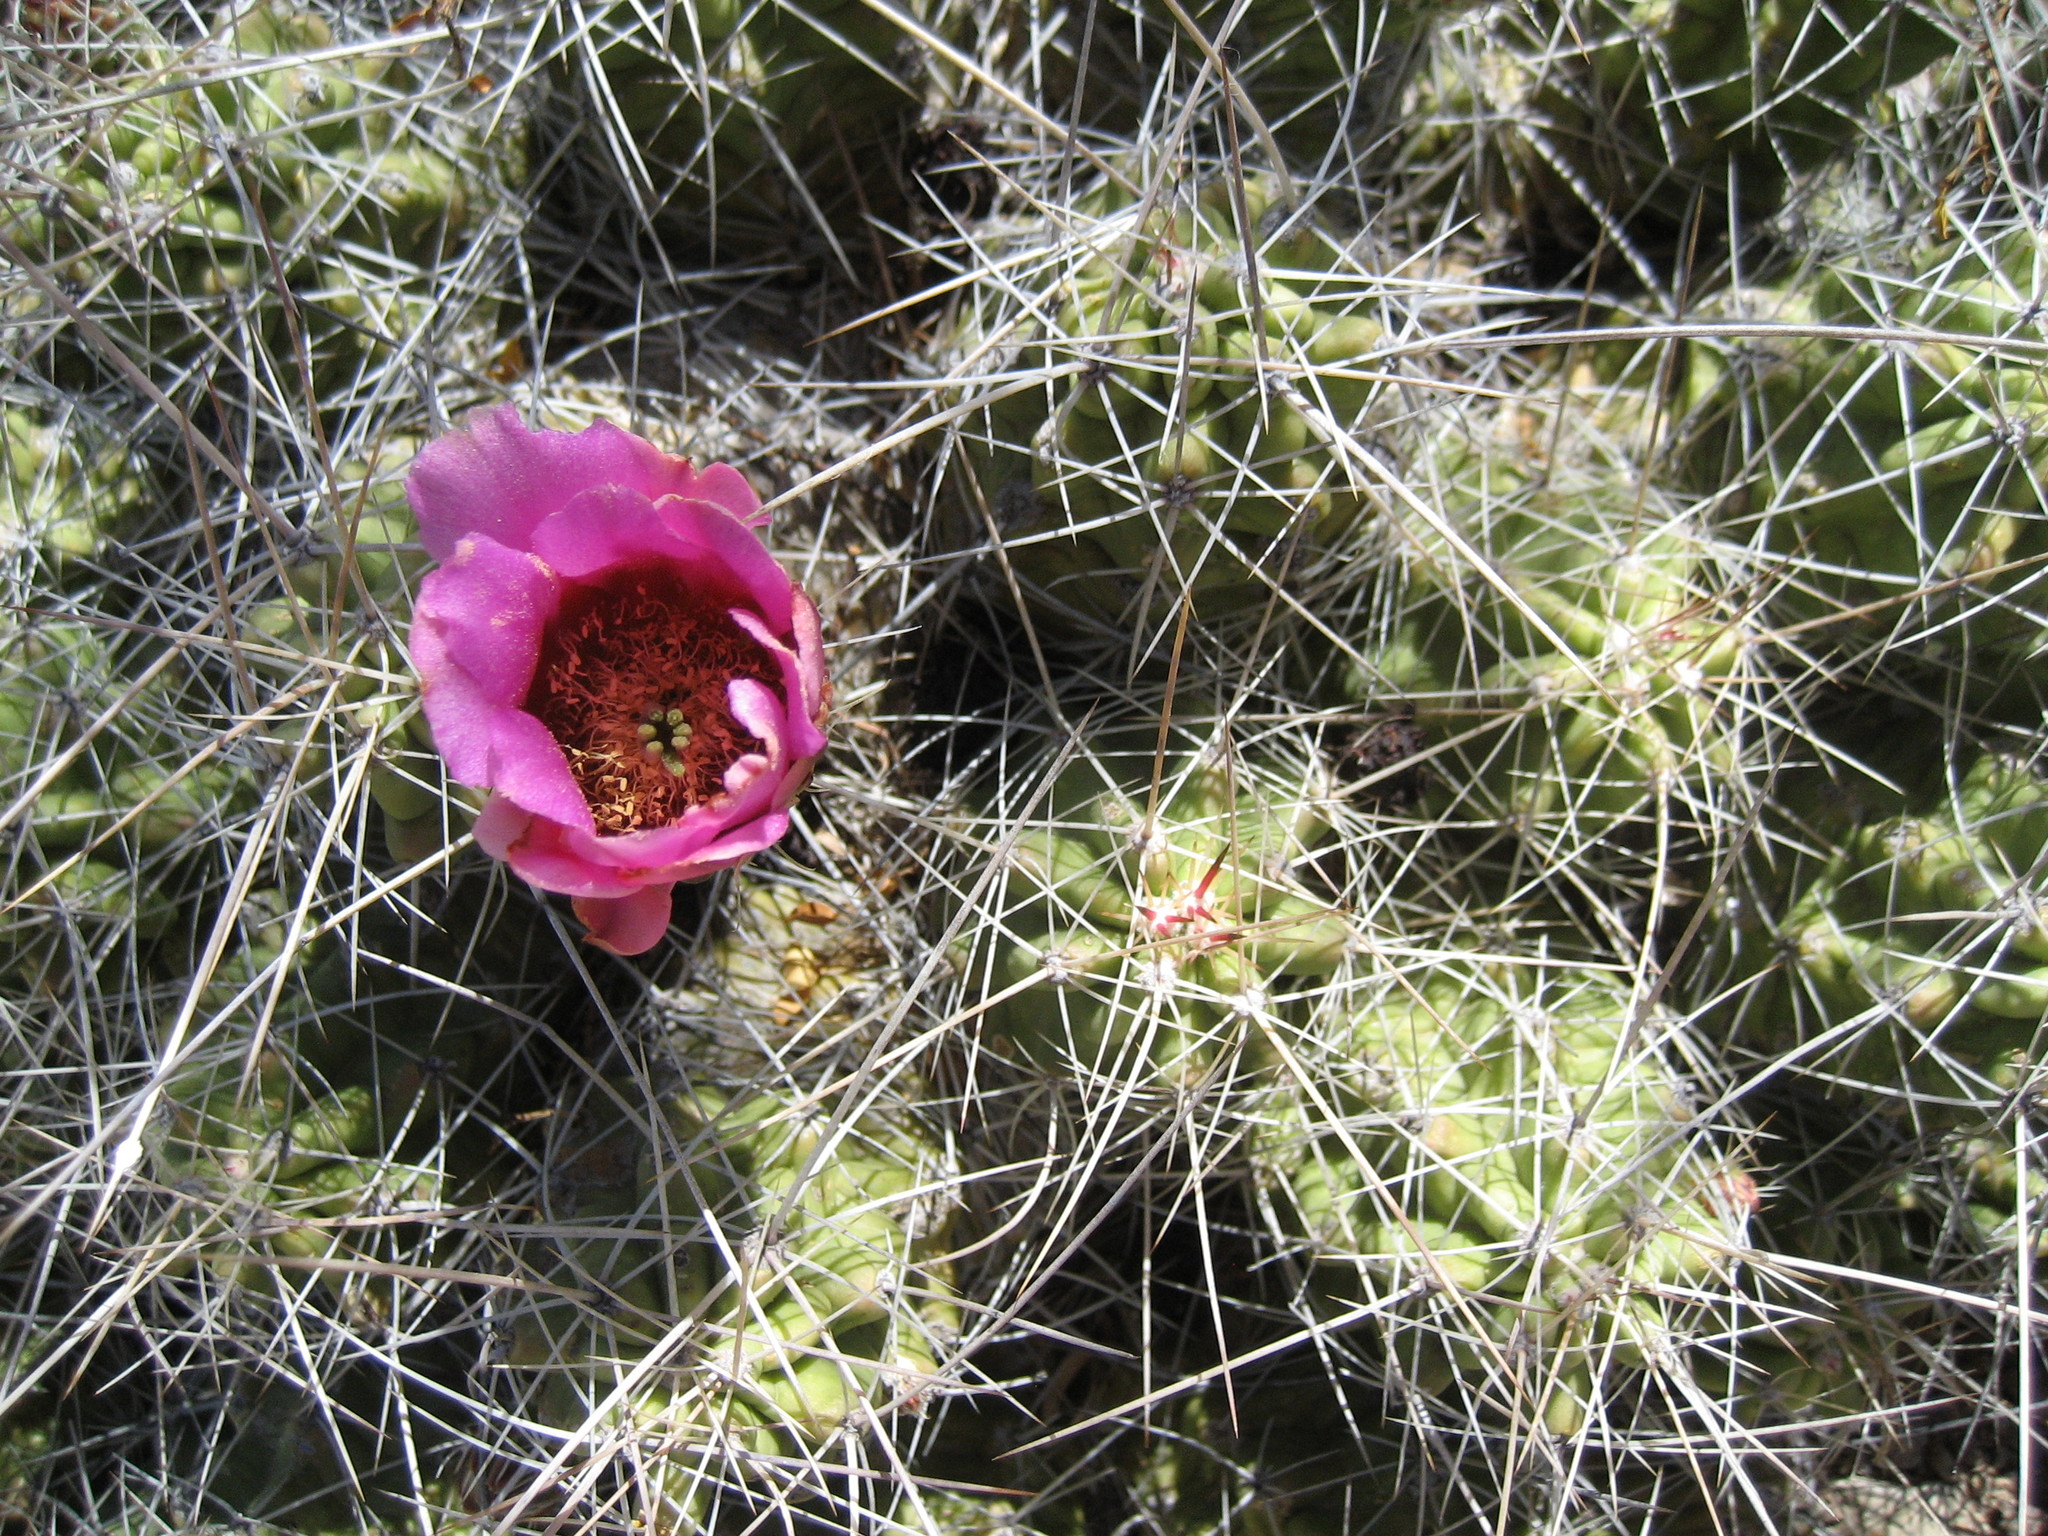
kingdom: Plantae
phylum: Tracheophyta
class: Magnoliopsida
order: Caryophyllales
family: Cactaceae
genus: Echinocereus
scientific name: Echinocereus enneacanthus
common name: Pitaya
